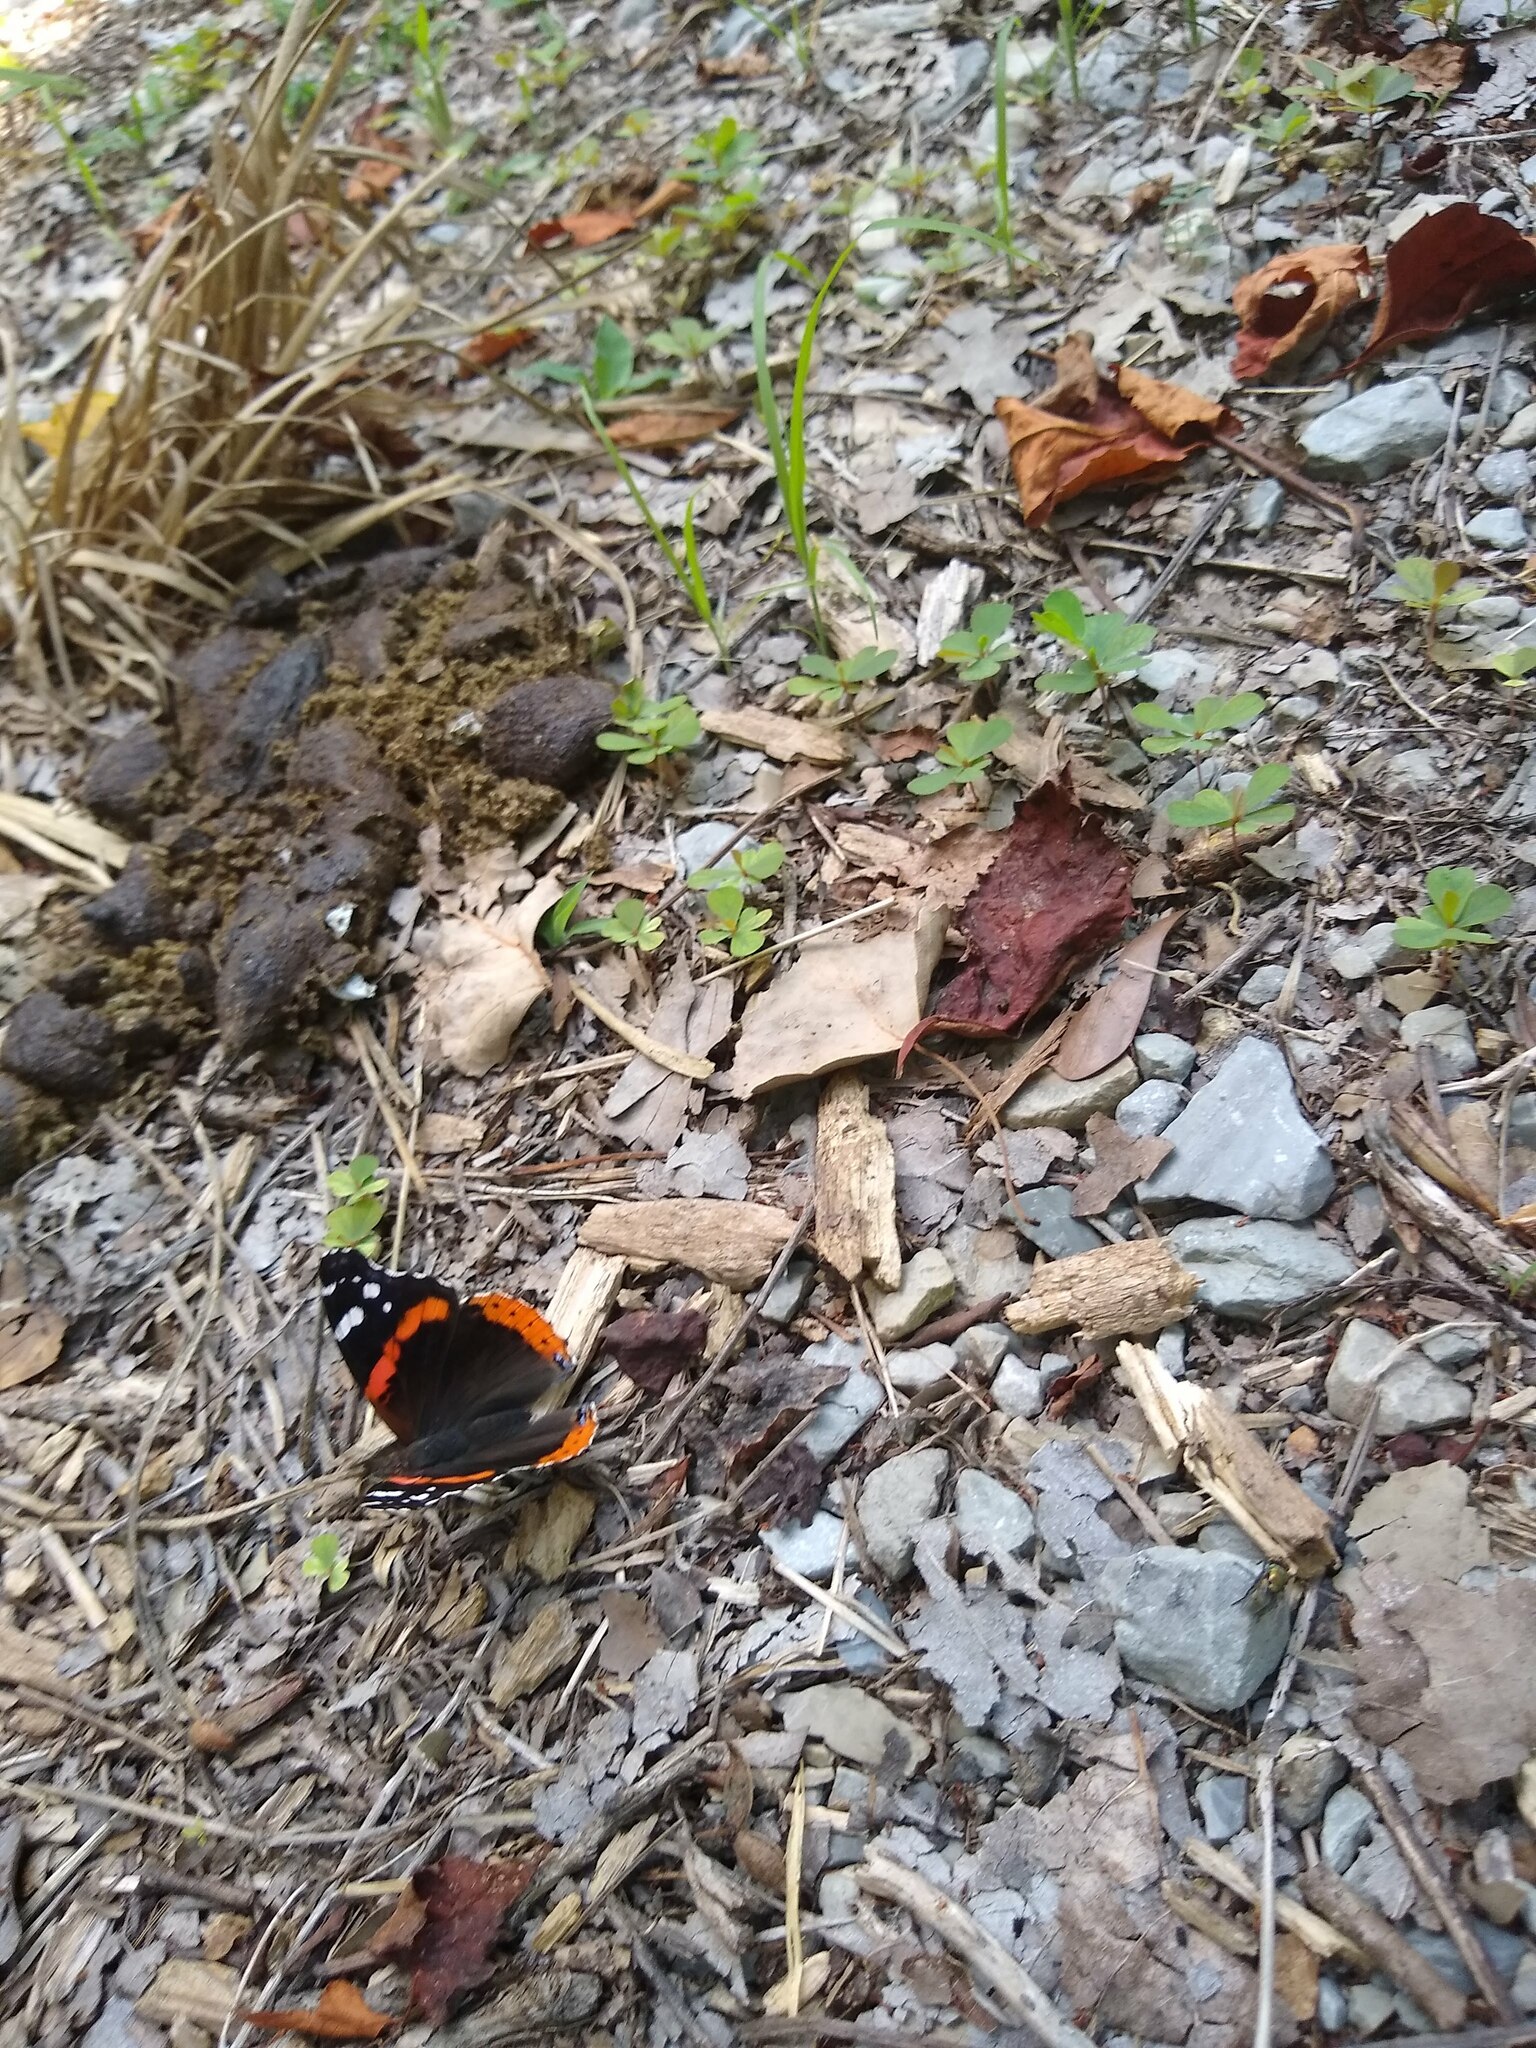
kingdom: Animalia
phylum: Arthropoda
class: Insecta
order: Lepidoptera
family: Nymphalidae
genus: Vanessa
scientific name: Vanessa atalanta
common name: Red admiral
